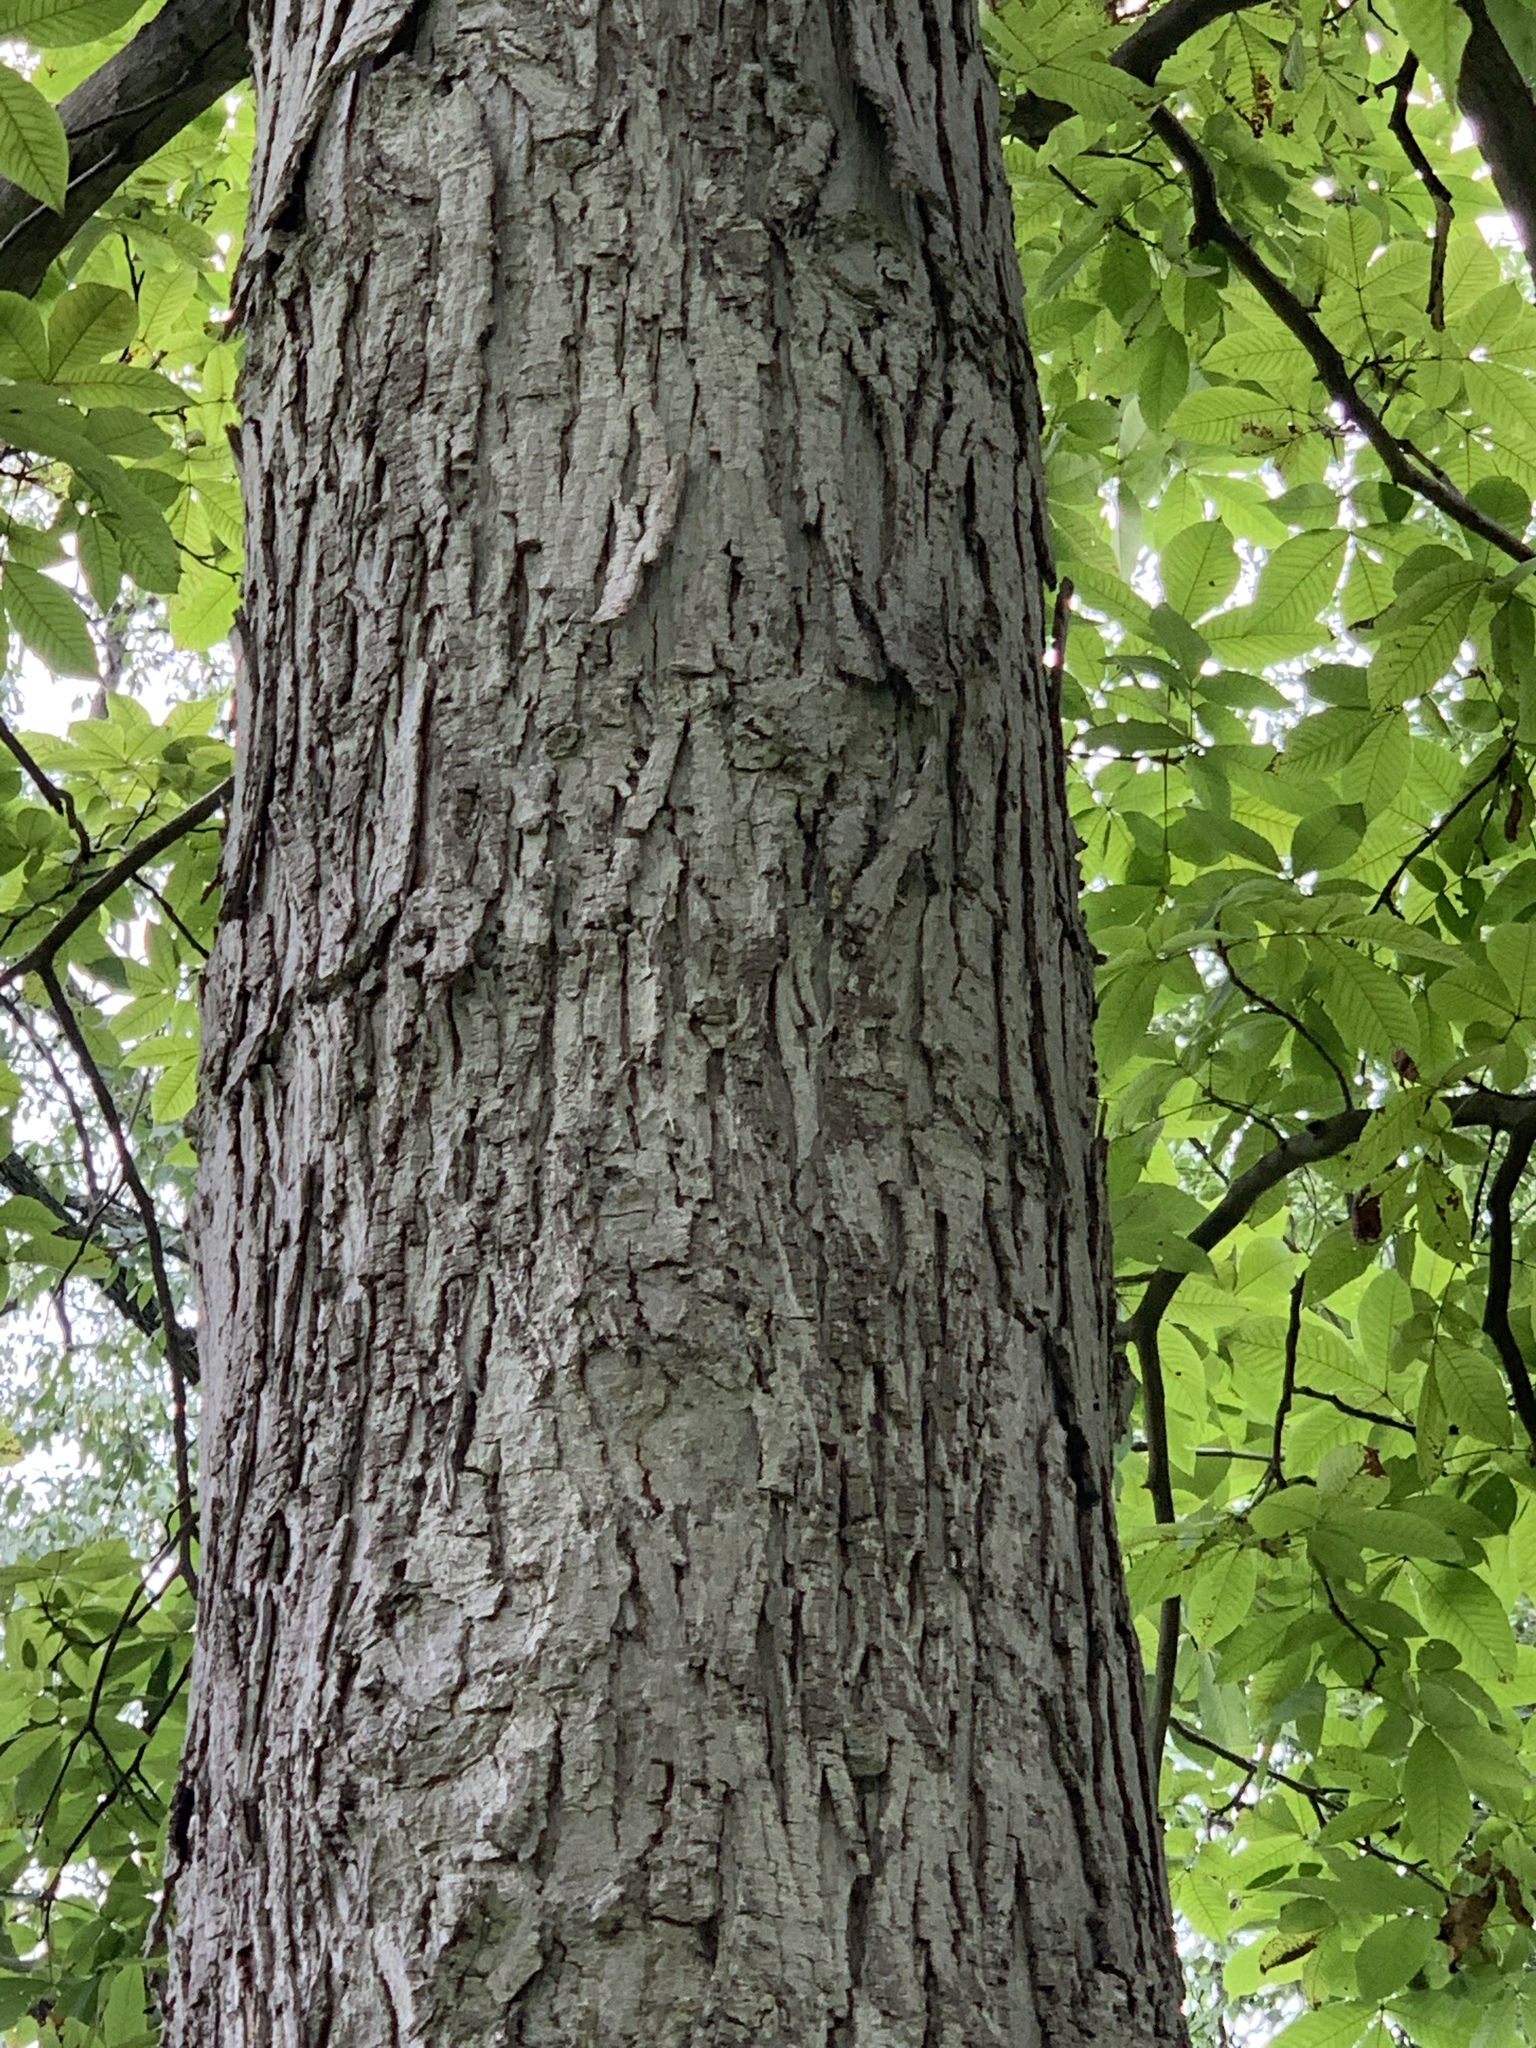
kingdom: Plantae
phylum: Tracheophyta
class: Magnoliopsida
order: Fagales
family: Juglandaceae
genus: Carya
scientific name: Carya ovata
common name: Shagbark hickory
